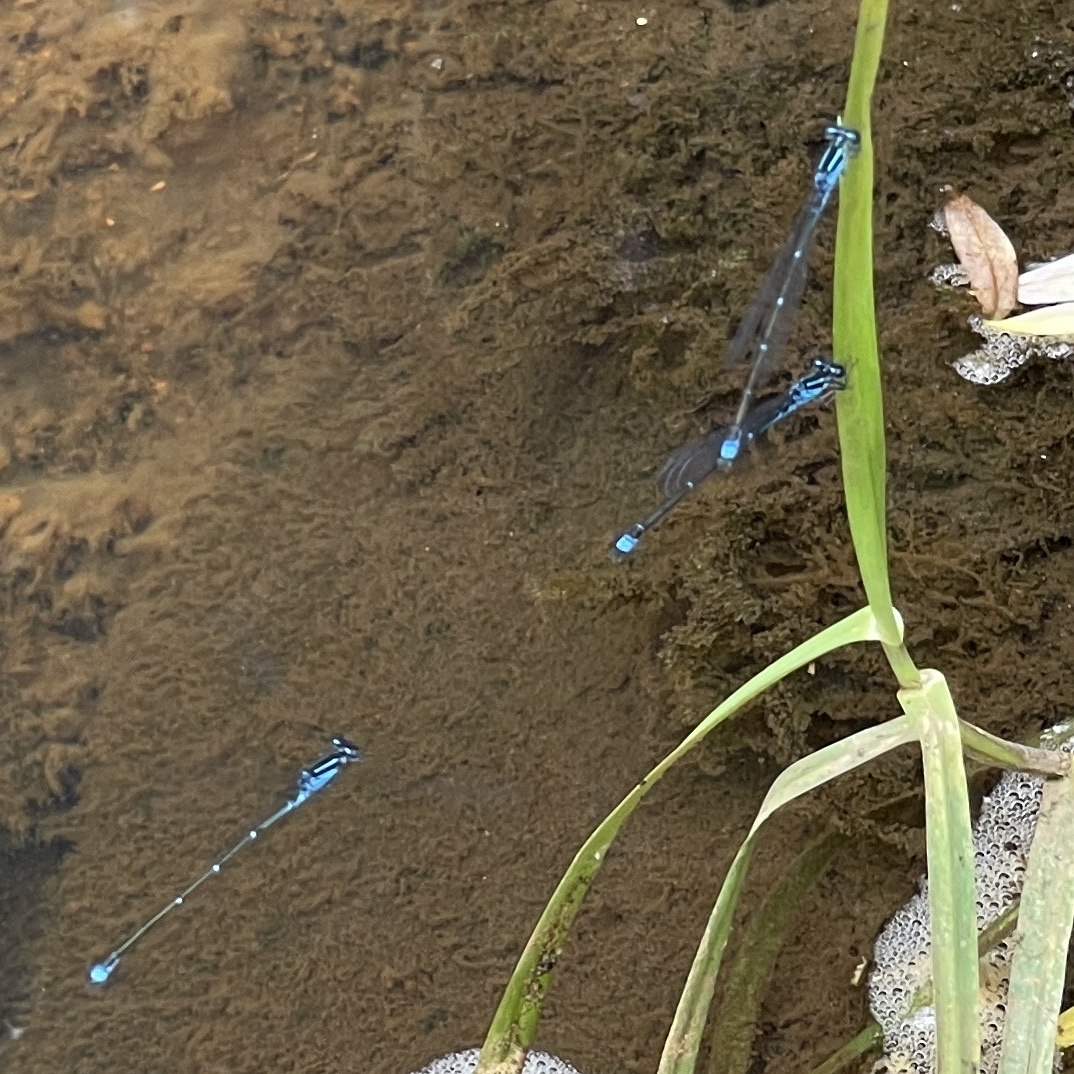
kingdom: Animalia
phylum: Arthropoda
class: Insecta
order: Odonata
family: Coenagrionidae
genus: Enallagma
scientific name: Enallagma exsulans
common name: Stream bluet
